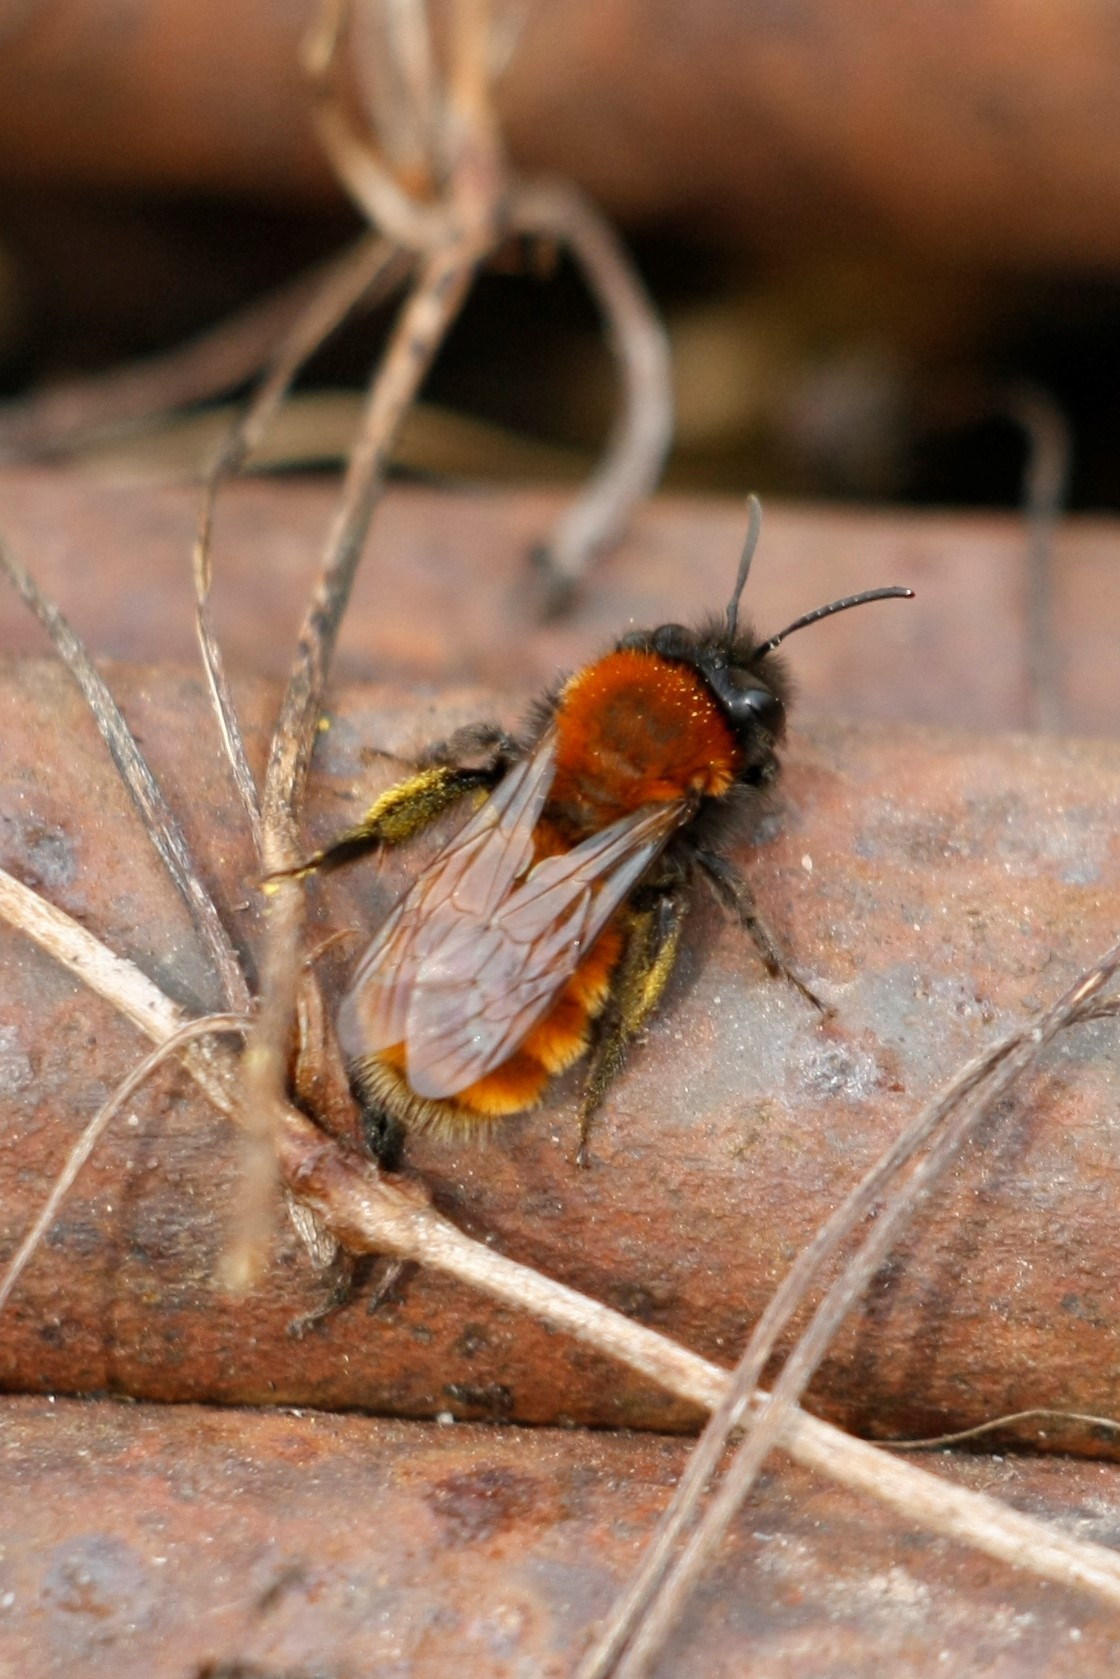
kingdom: Animalia
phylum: Arthropoda
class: Insecta
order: Hymenoptera
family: Andrenidae
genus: Andrena
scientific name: Andrena fulva
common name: Tawny mining bee
